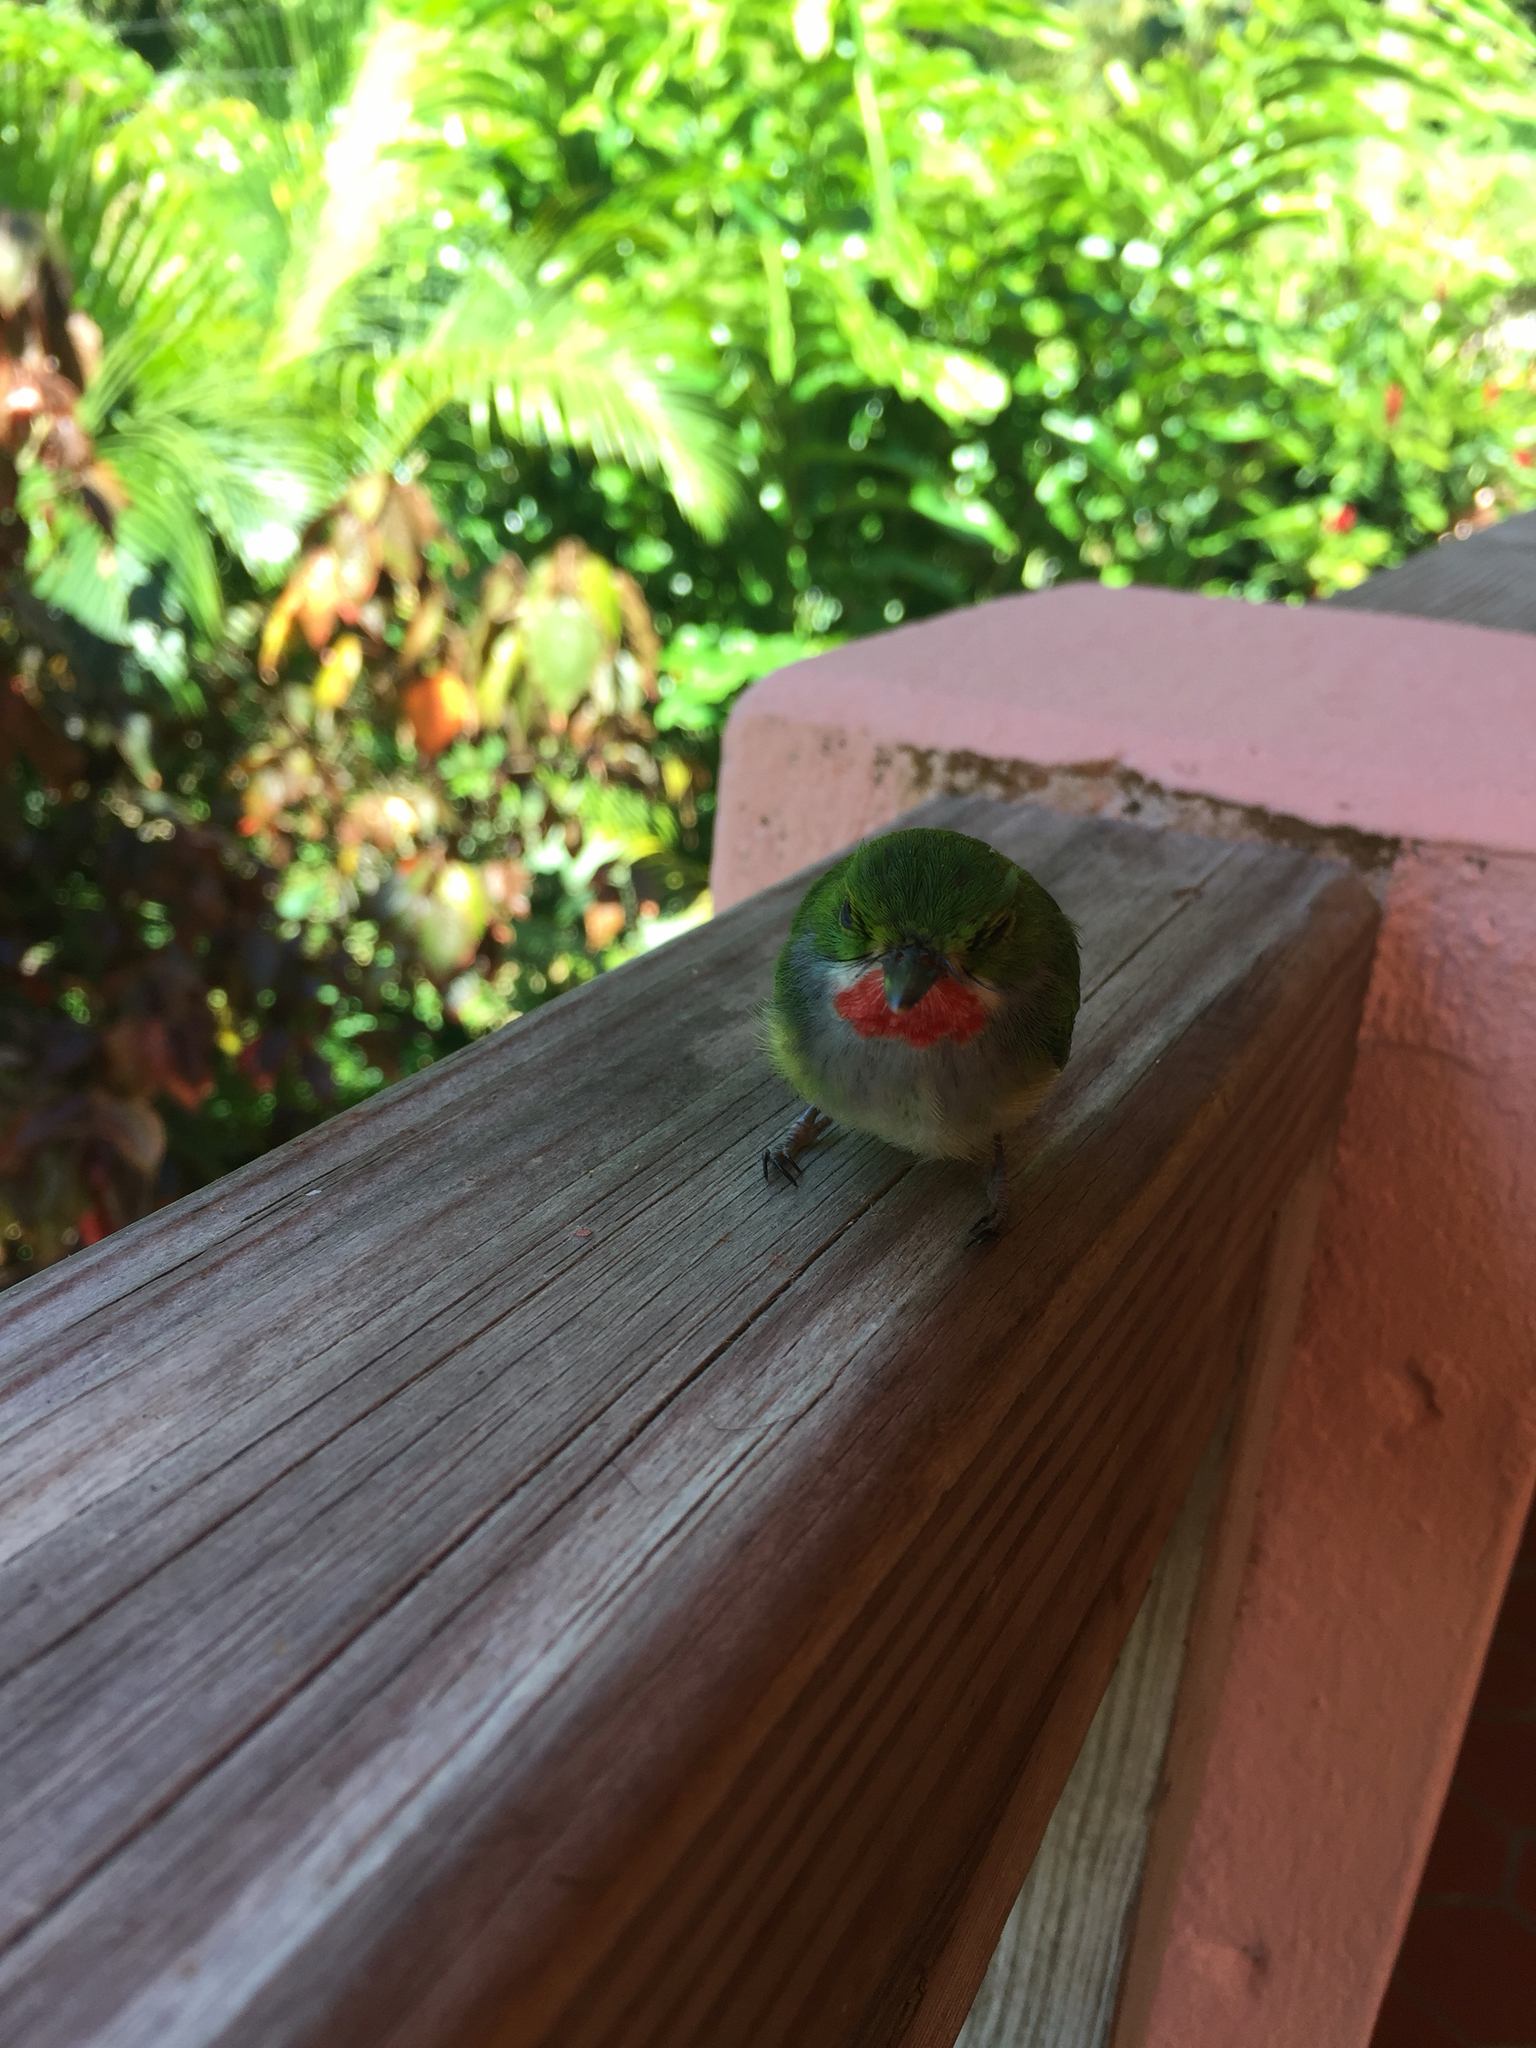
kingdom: Animalia
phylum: Chordata
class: Aves
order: Coraciiformes
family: Todidae
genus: Todus
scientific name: Todus mexicanus
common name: Puerto rican tody
